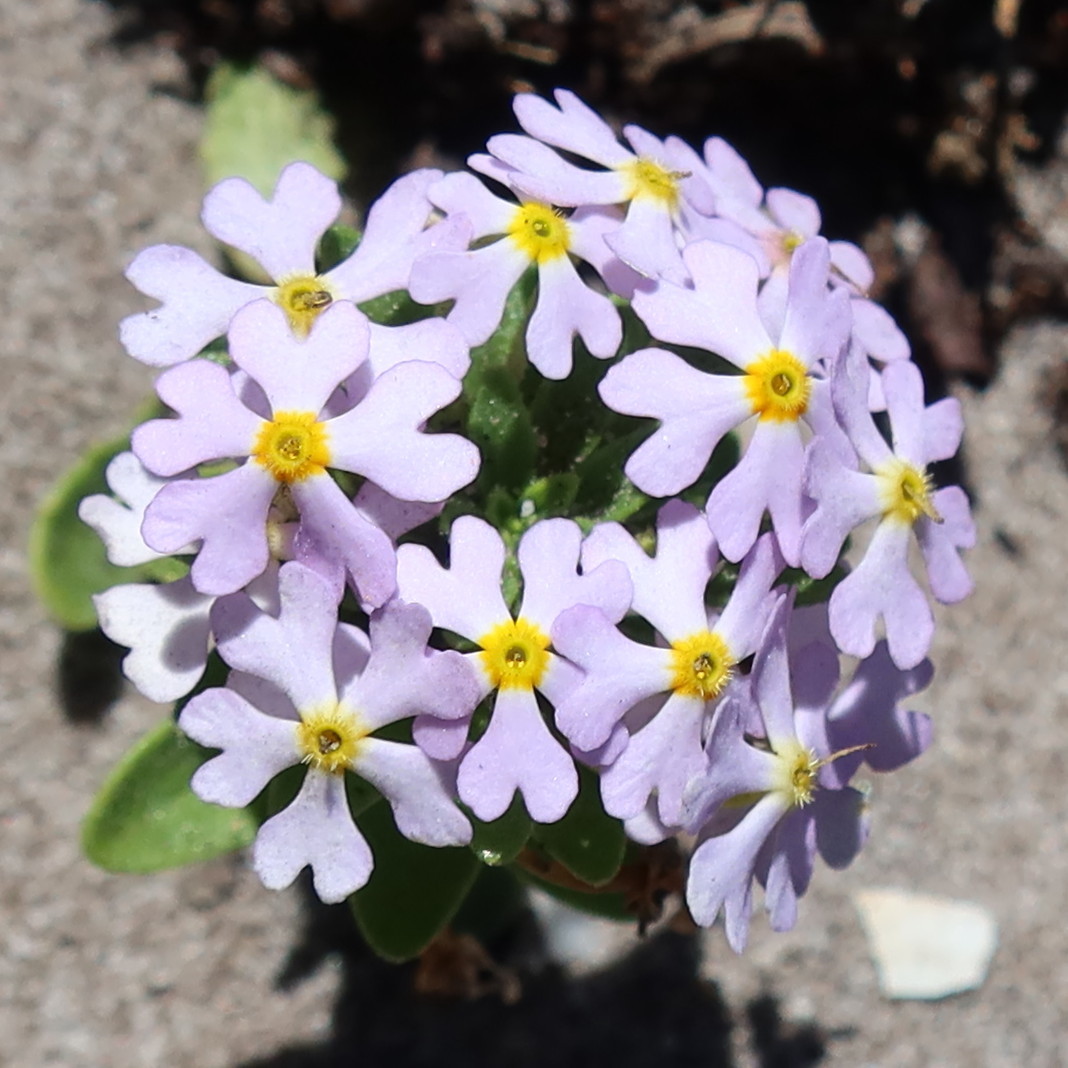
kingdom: Plantae
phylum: Tracheophyta
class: Magnoliopsida
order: Lamiales
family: Scrophulariaceae
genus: Zaluzianskya
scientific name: Zaluzianskya villosa
